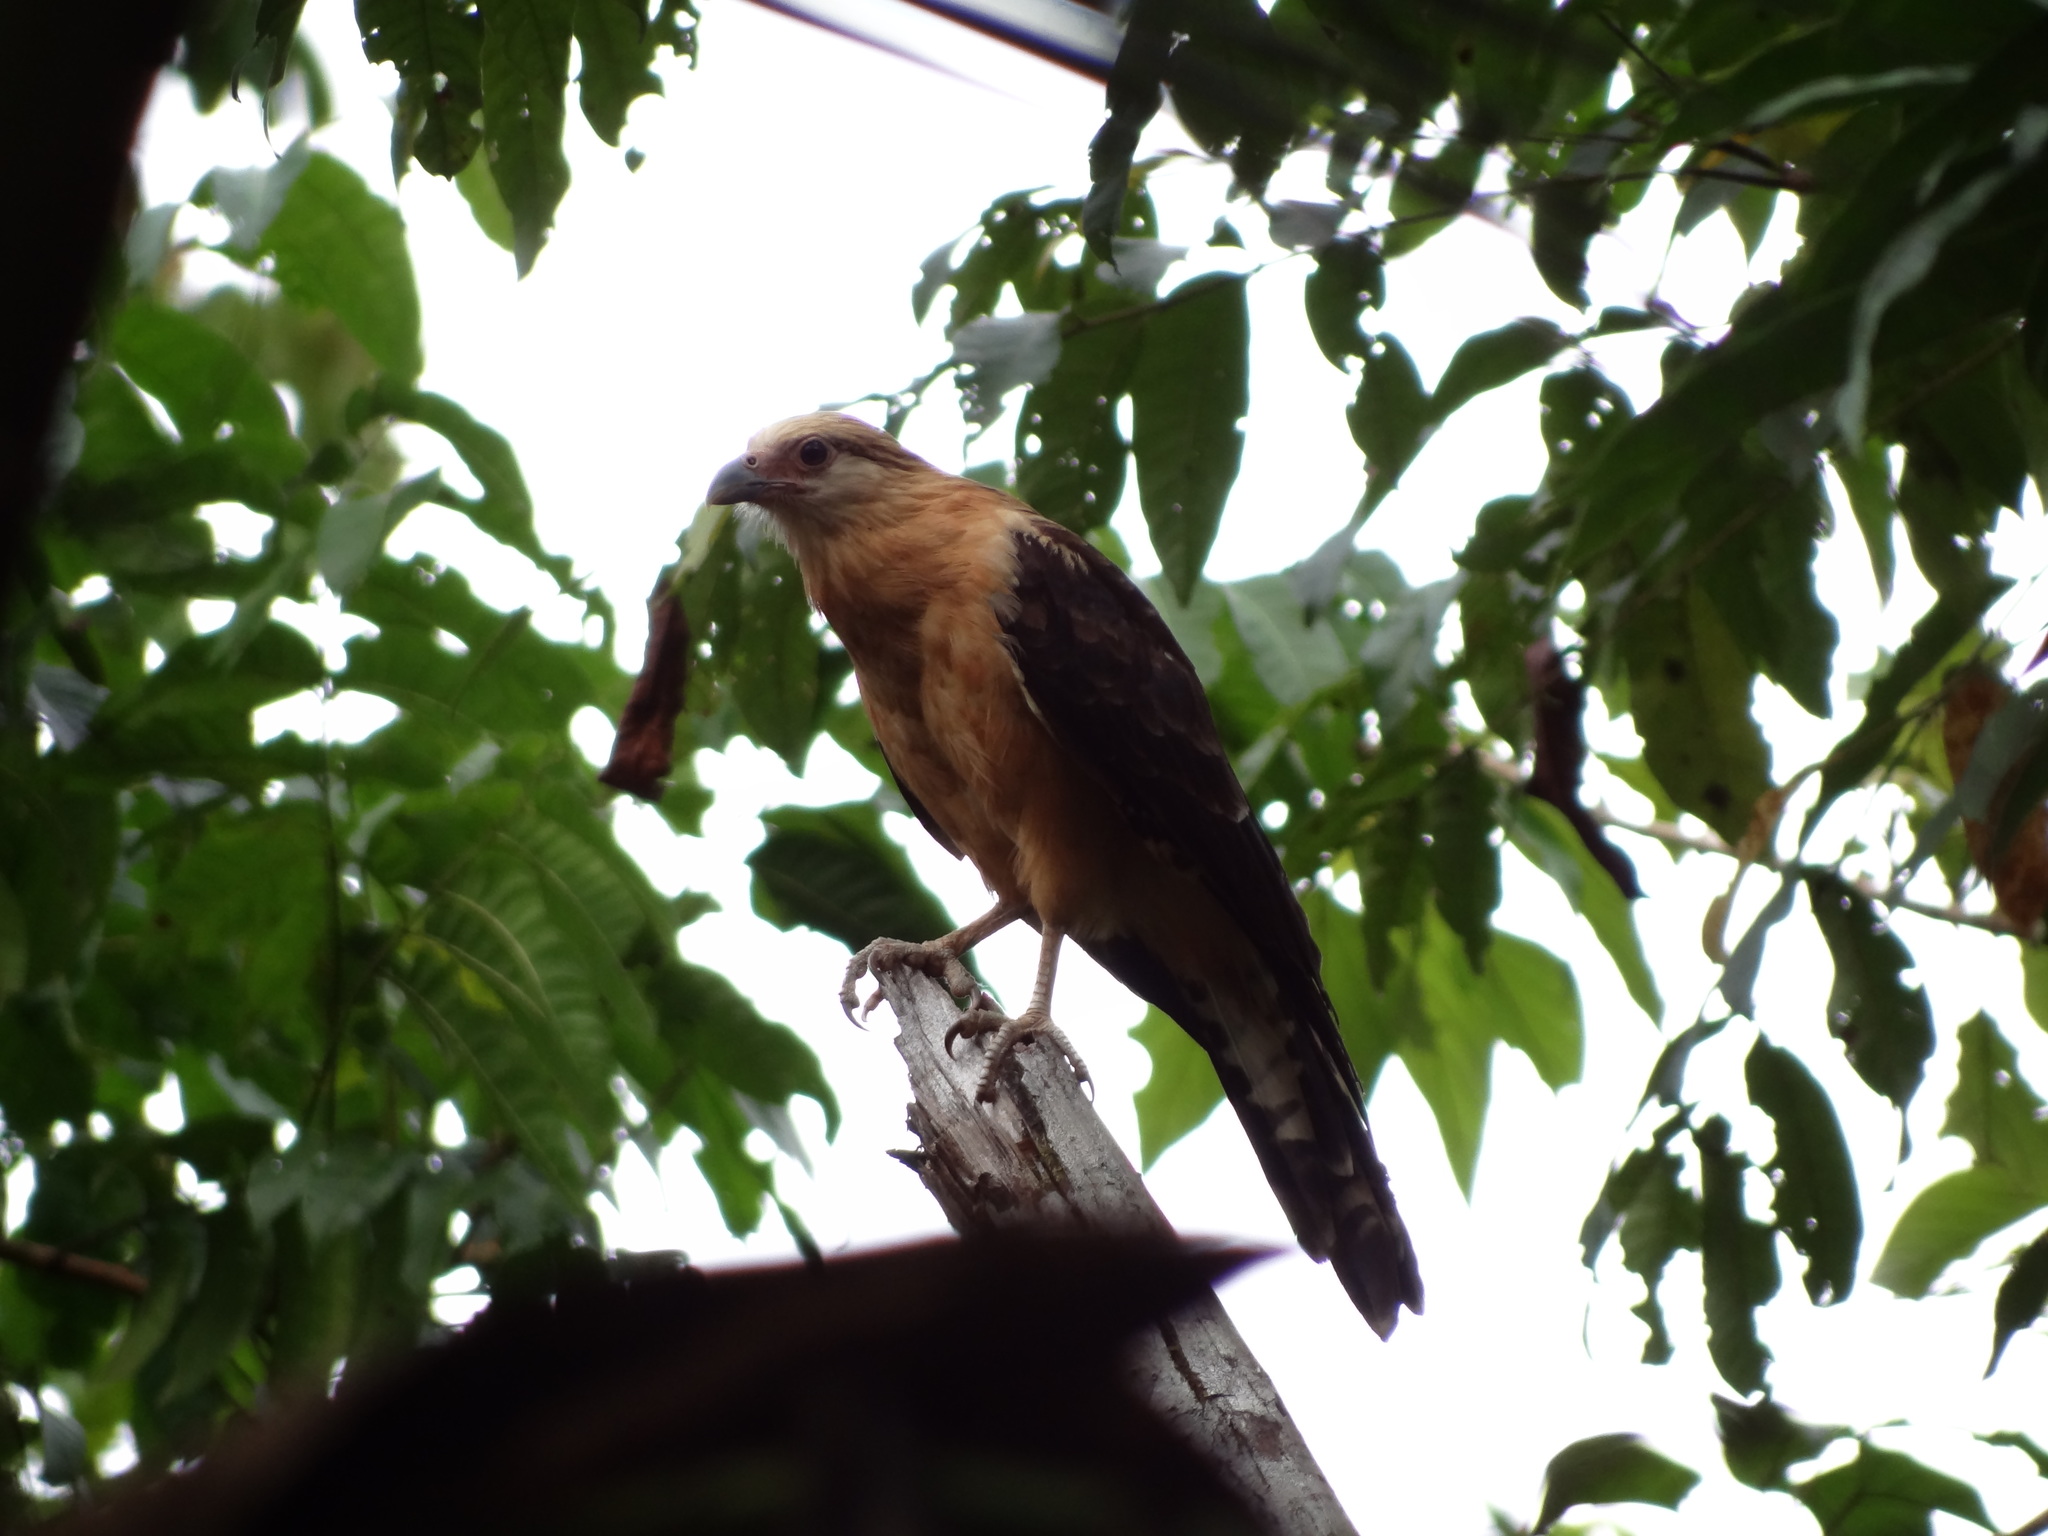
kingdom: Animalia
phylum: Chordata
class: Aves
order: Falconiformes
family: Falconidae
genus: Daptrius
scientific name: Daptrius
